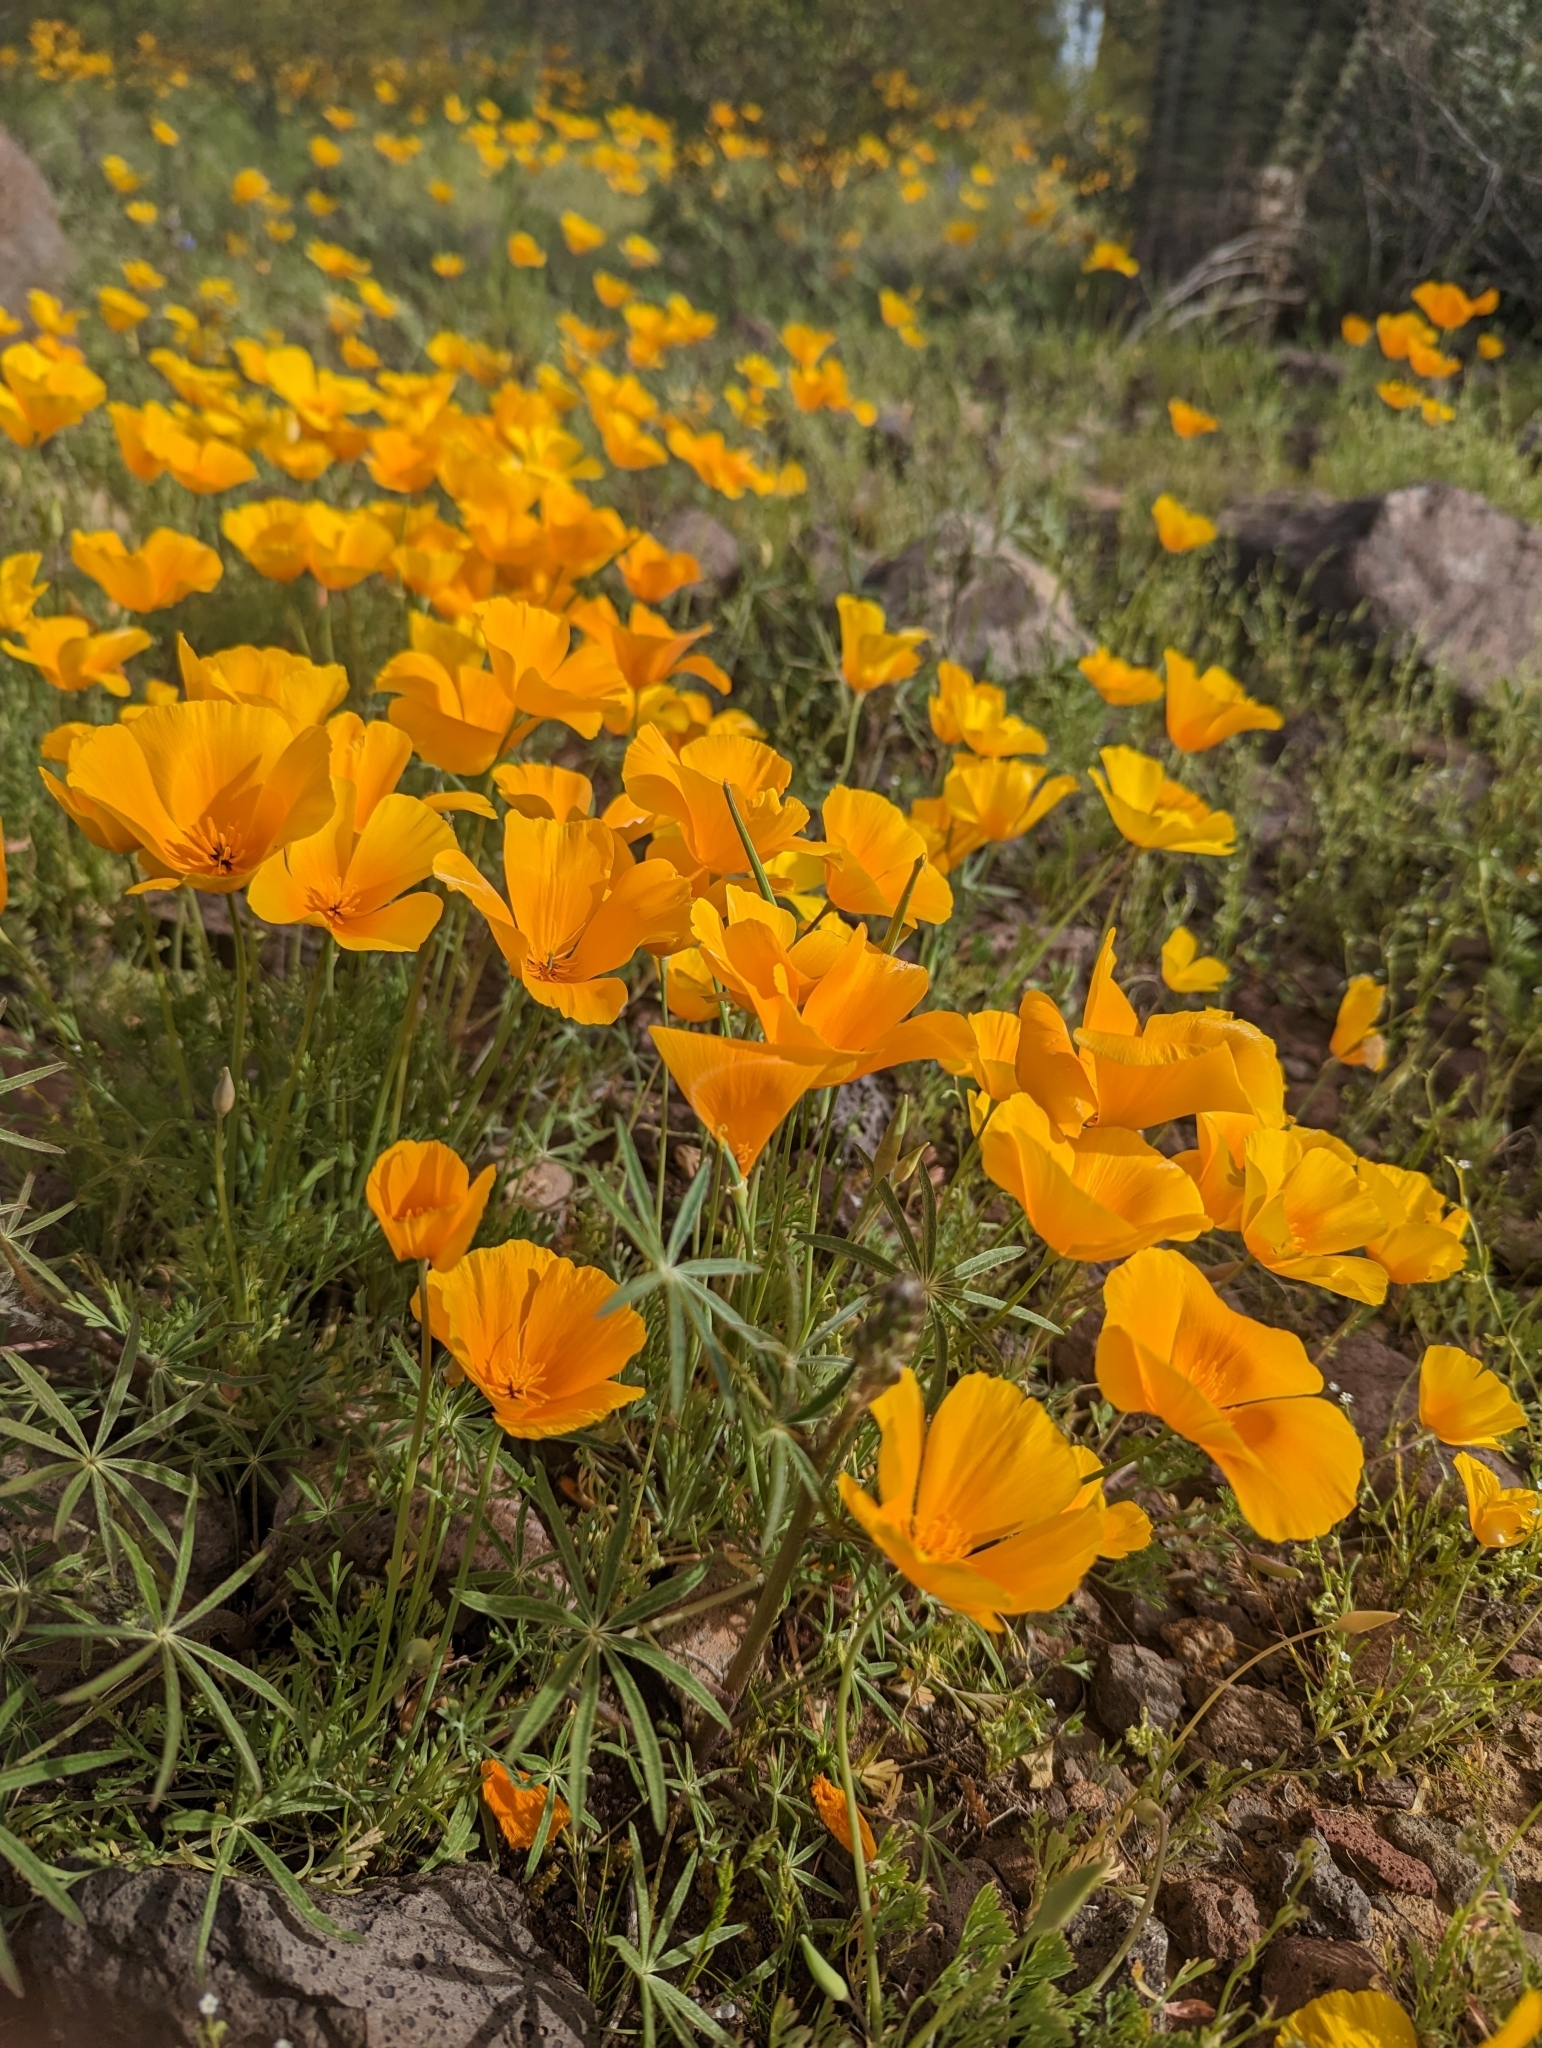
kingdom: Plantae
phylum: Tracheophyta
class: Magnoliopsida
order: Ranunculales
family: Papaveraceae
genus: Eschscholzia
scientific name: Eschscholzia californica
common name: California poppy
